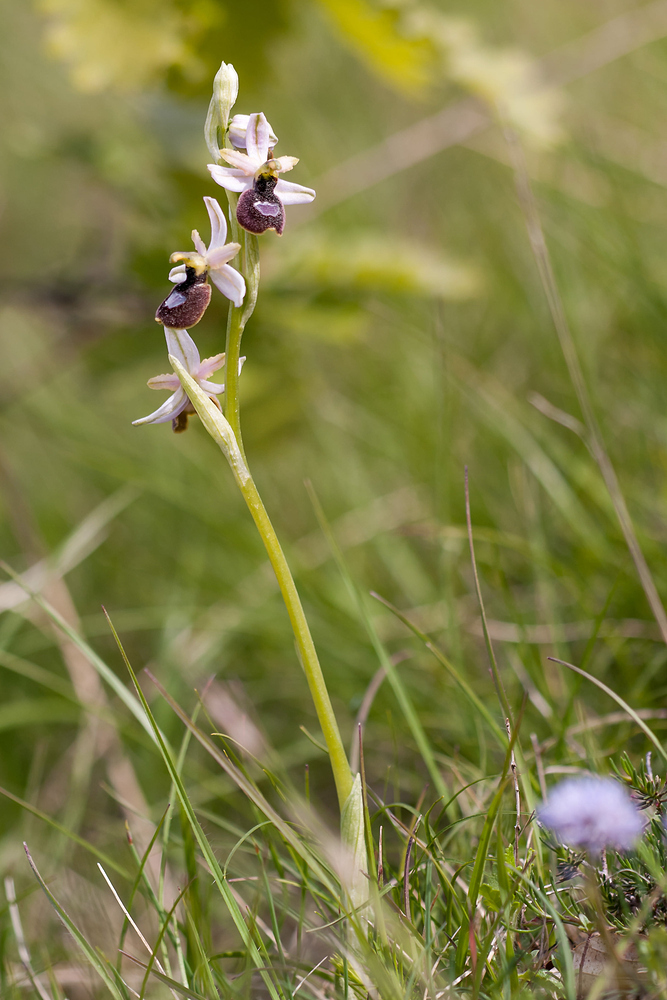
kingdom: Plantae
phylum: Tracheophyta
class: Liliopsida
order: Asparagales
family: Orchidaceae
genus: Ophrys
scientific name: Ophrys flavicans
